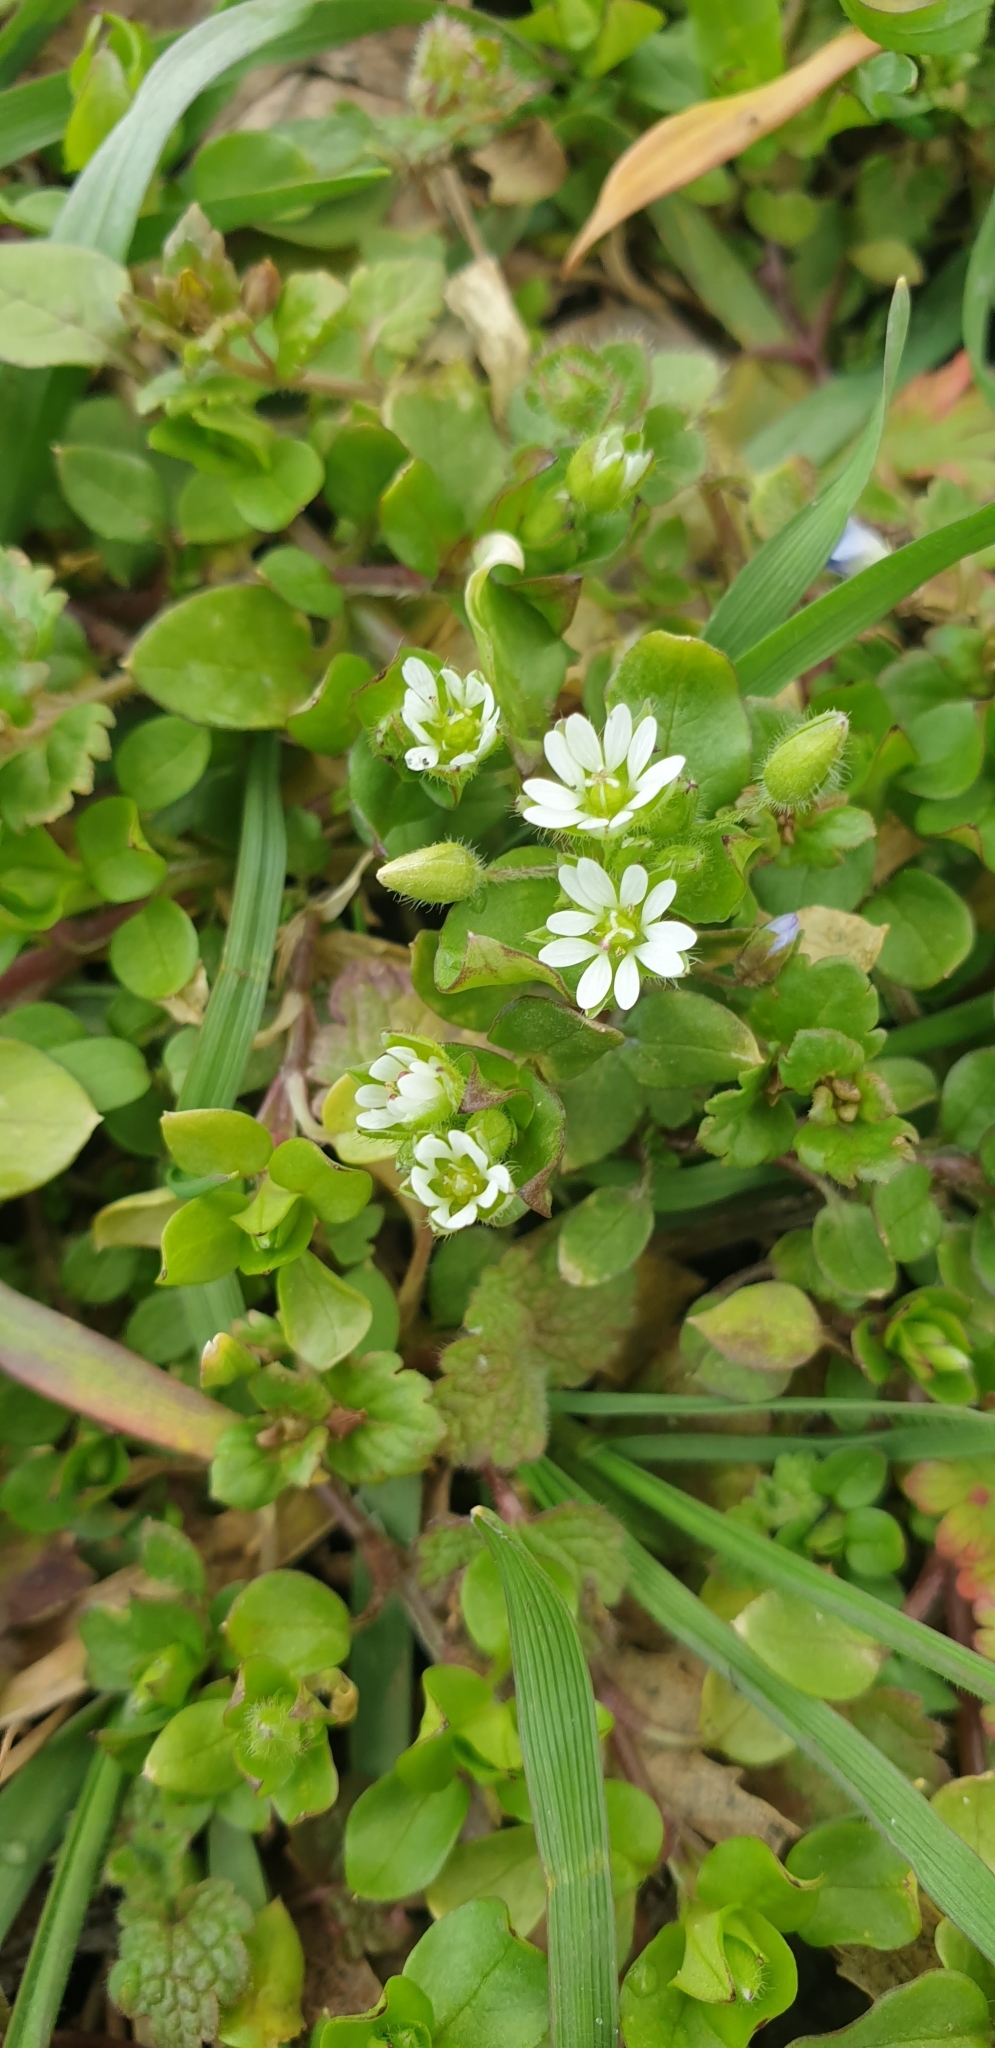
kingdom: Plantae
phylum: Tracheophyta
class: Magnoliopsida
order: Caryophyllales
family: Caryophyllaceae
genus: Stellaria
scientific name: Stellaria media
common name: Common chickweed
